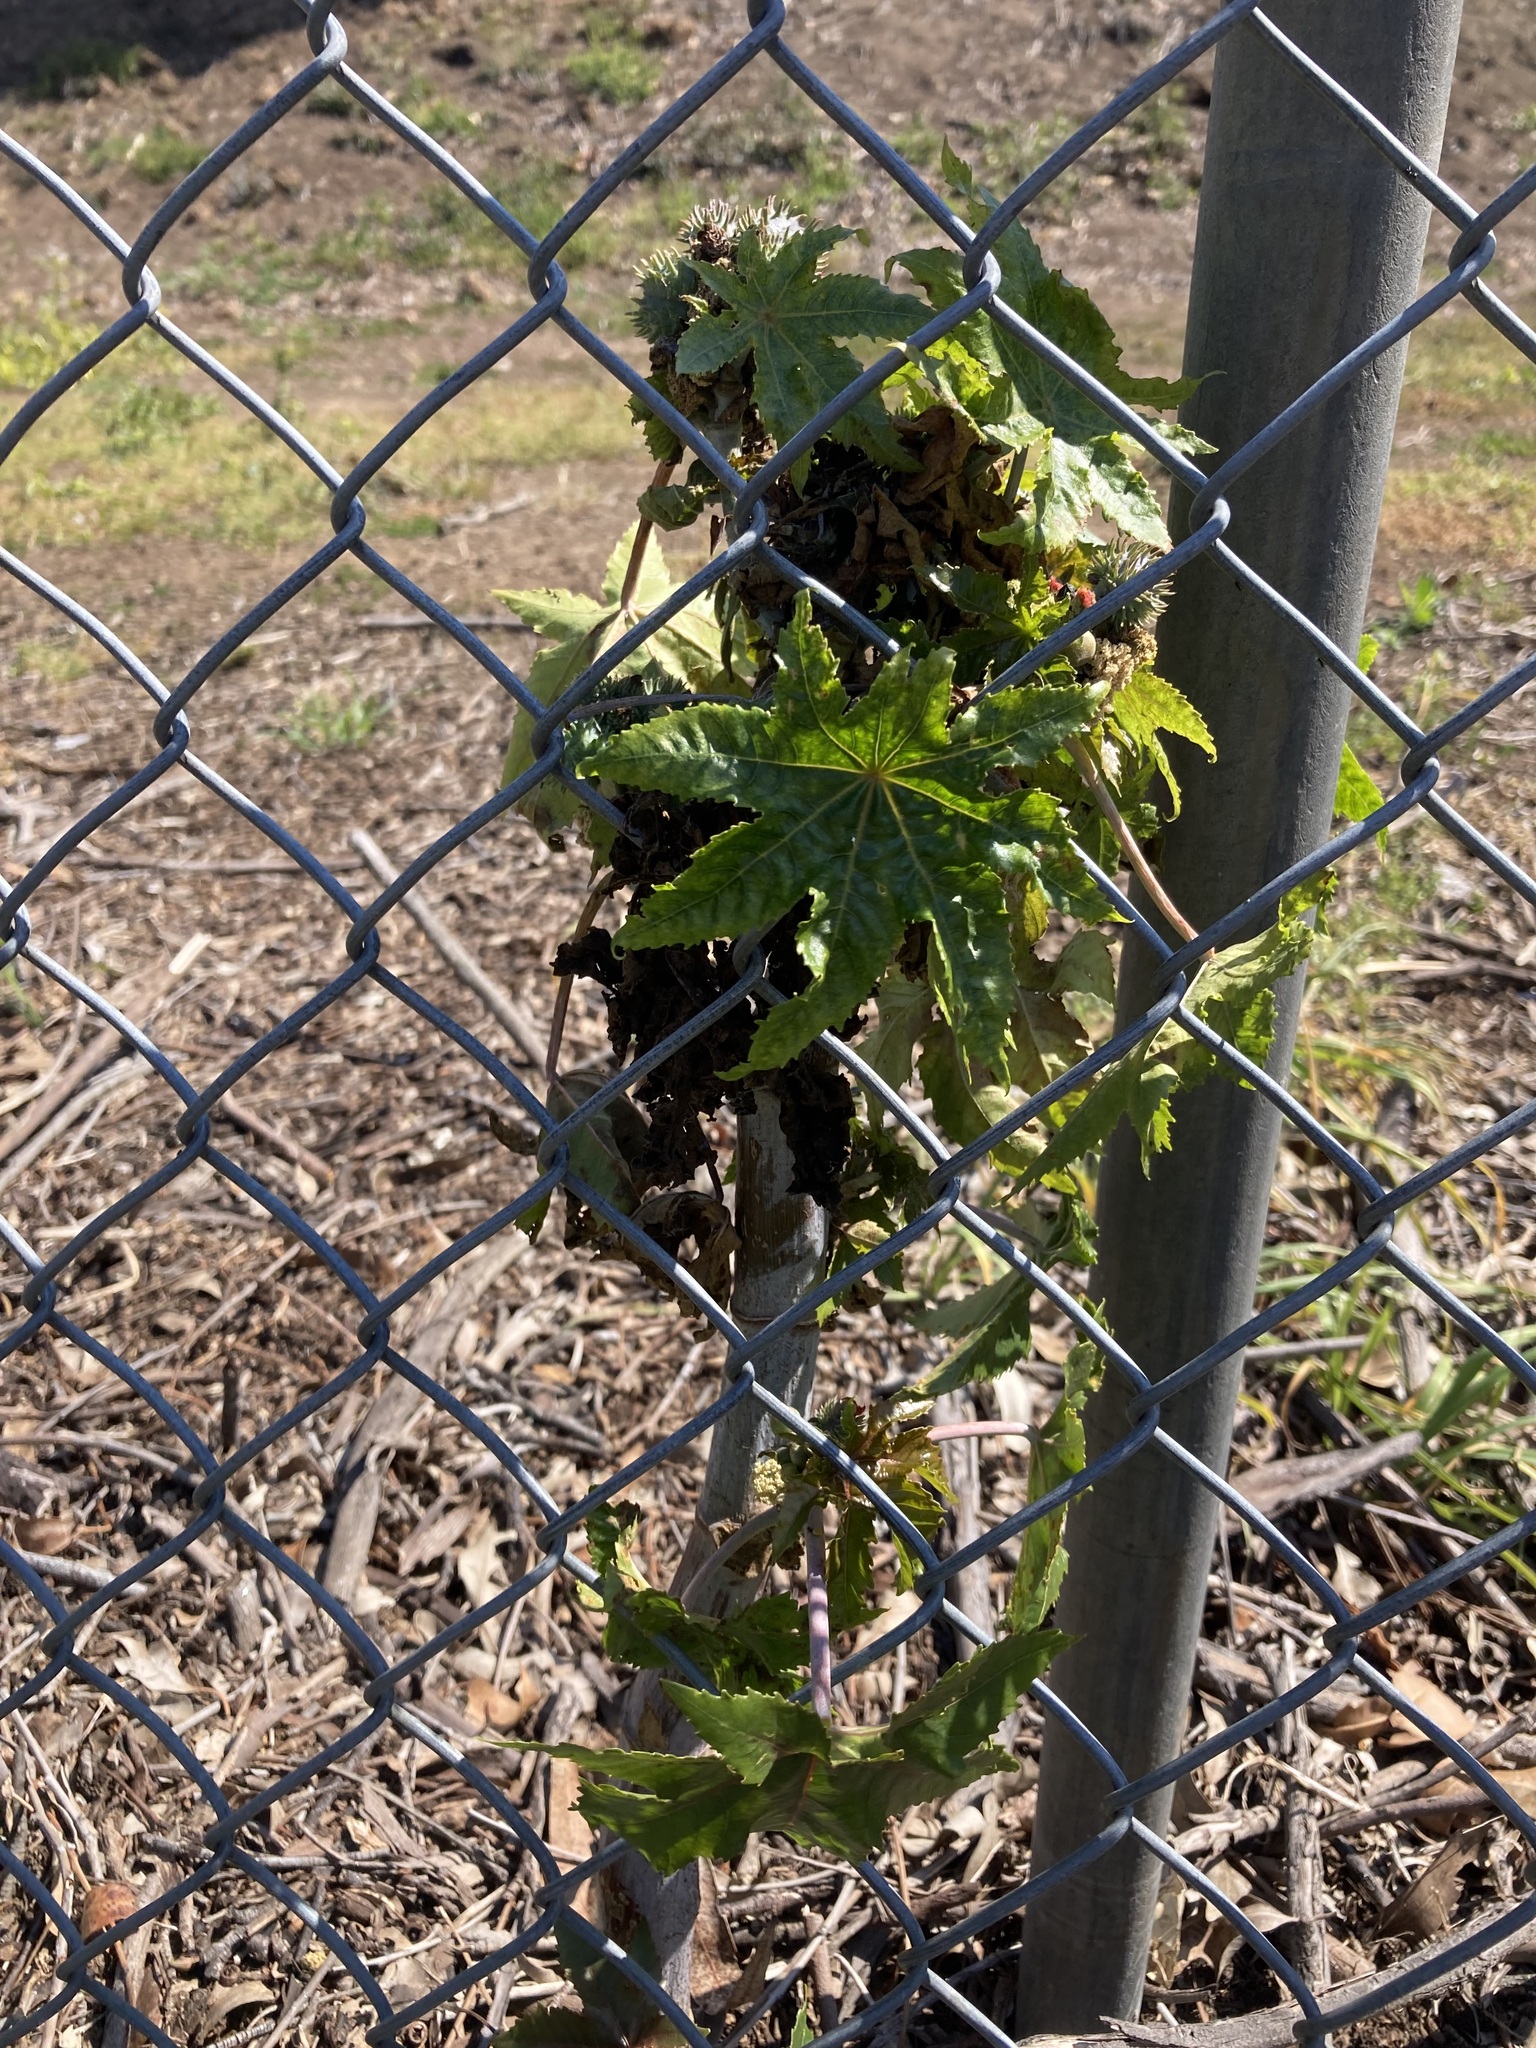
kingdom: Plantae
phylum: Tracheophyta
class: Magnoliopsida
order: Malpighiales
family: Euphorbiaceae
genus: Ricinus
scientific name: Ricinus communis
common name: Castor-oil-plant
